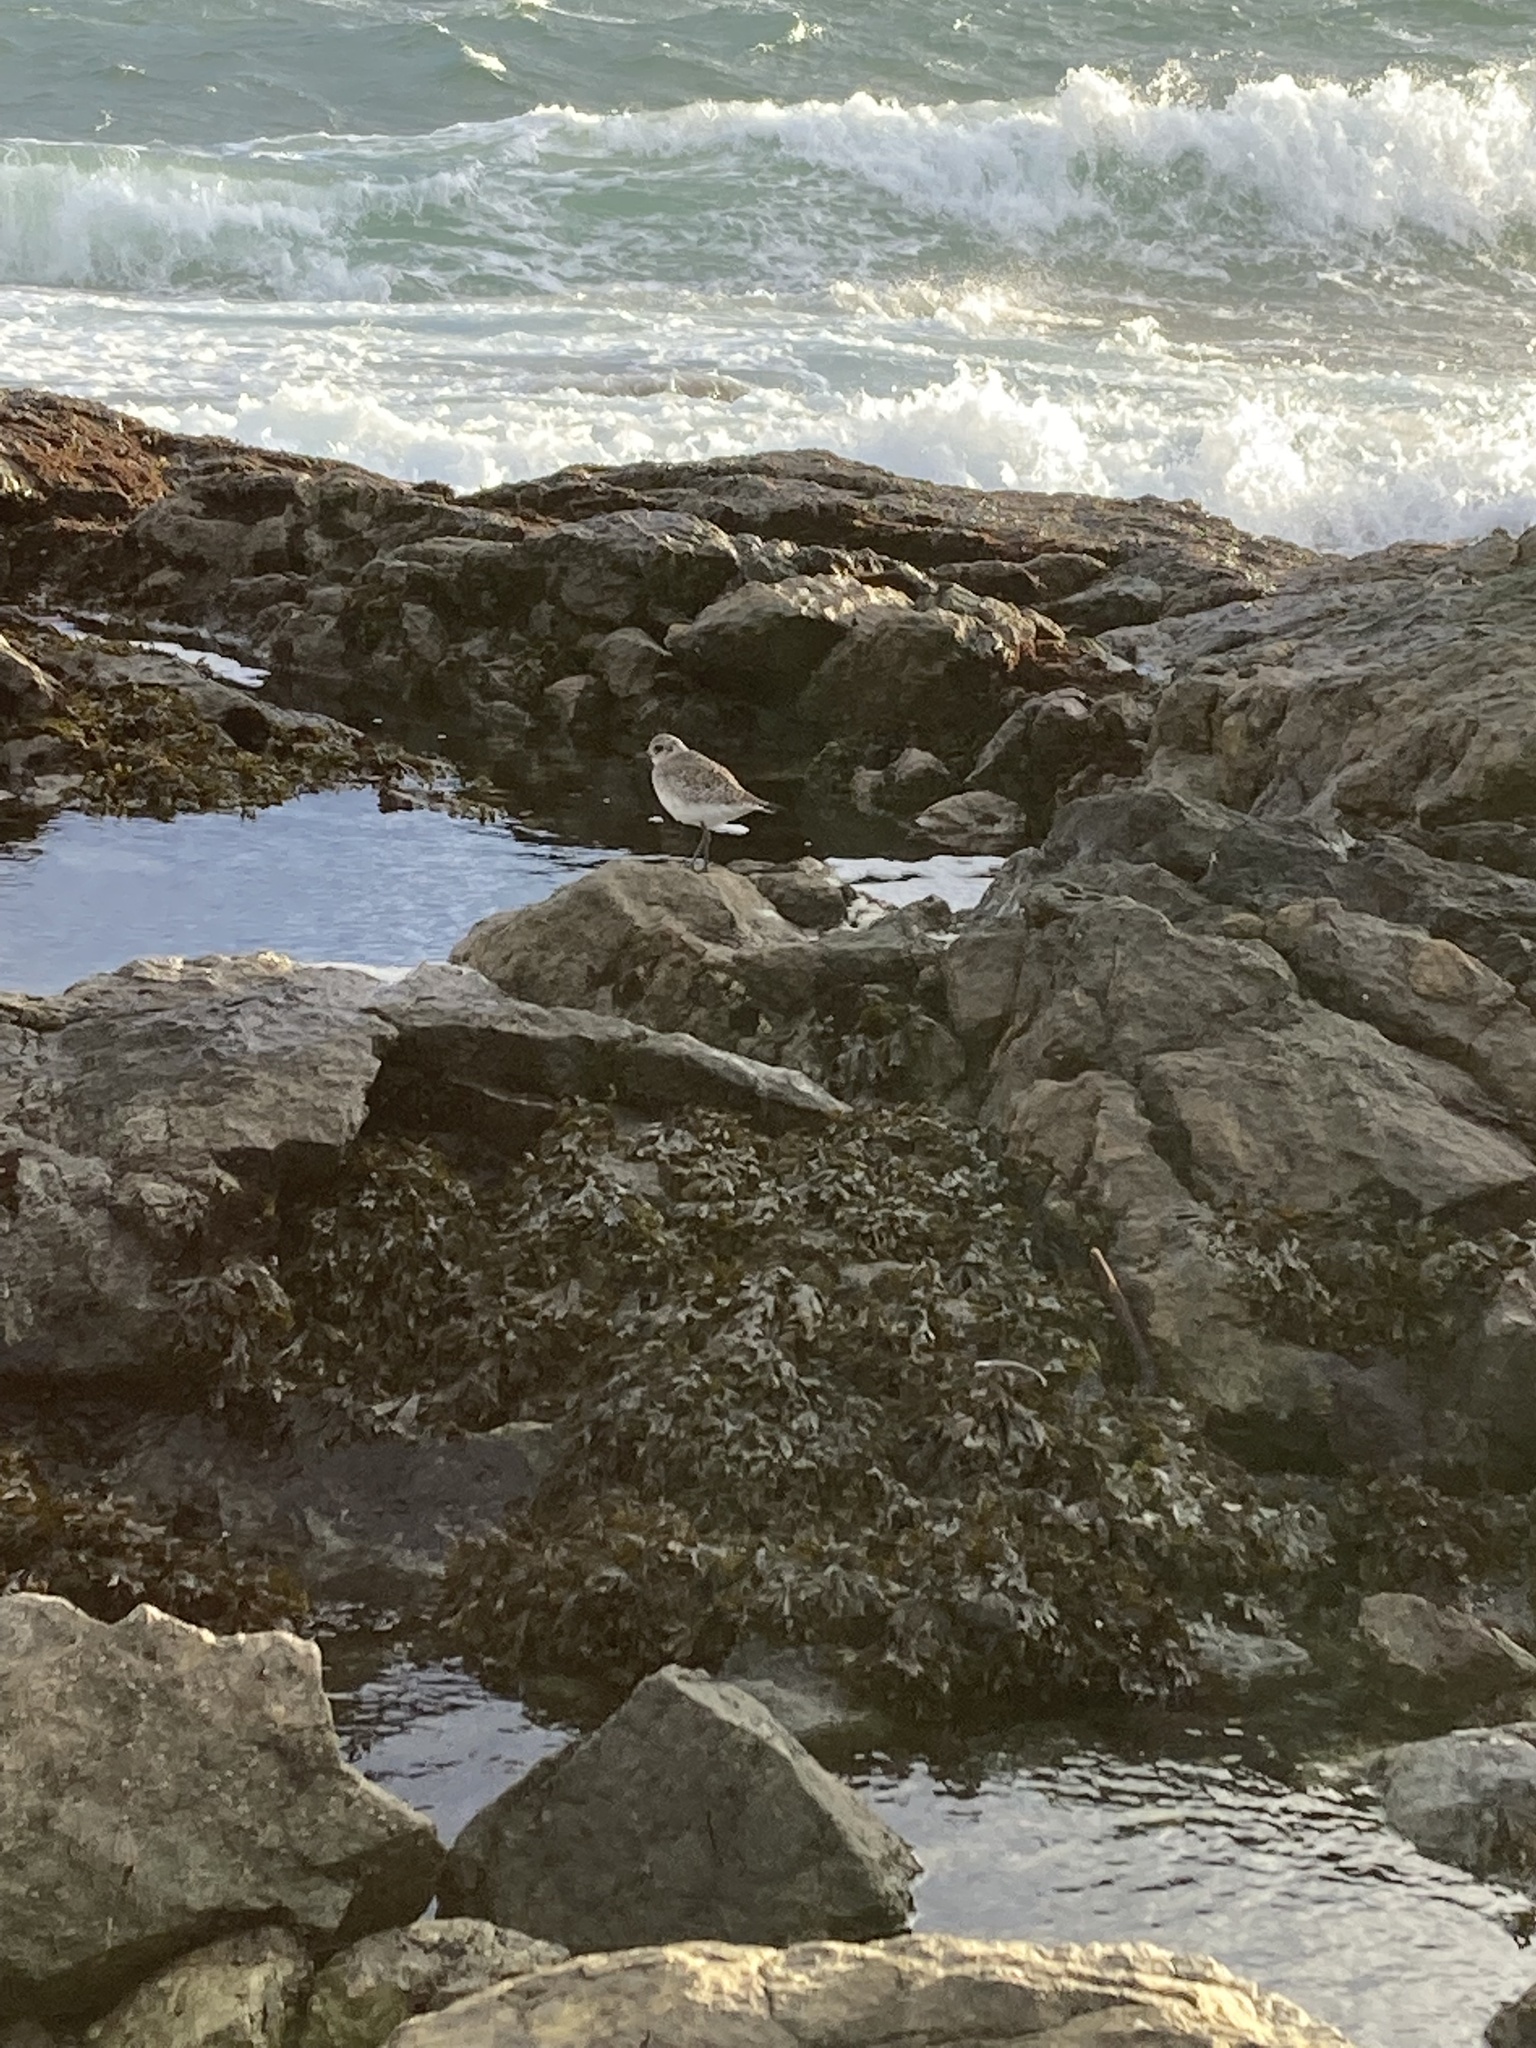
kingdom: Animalia
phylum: Chordata
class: Aves
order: Charadriiformes
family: Charadriidae
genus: Pluvialis
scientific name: Pluvialis squatarola
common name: Grey plover
